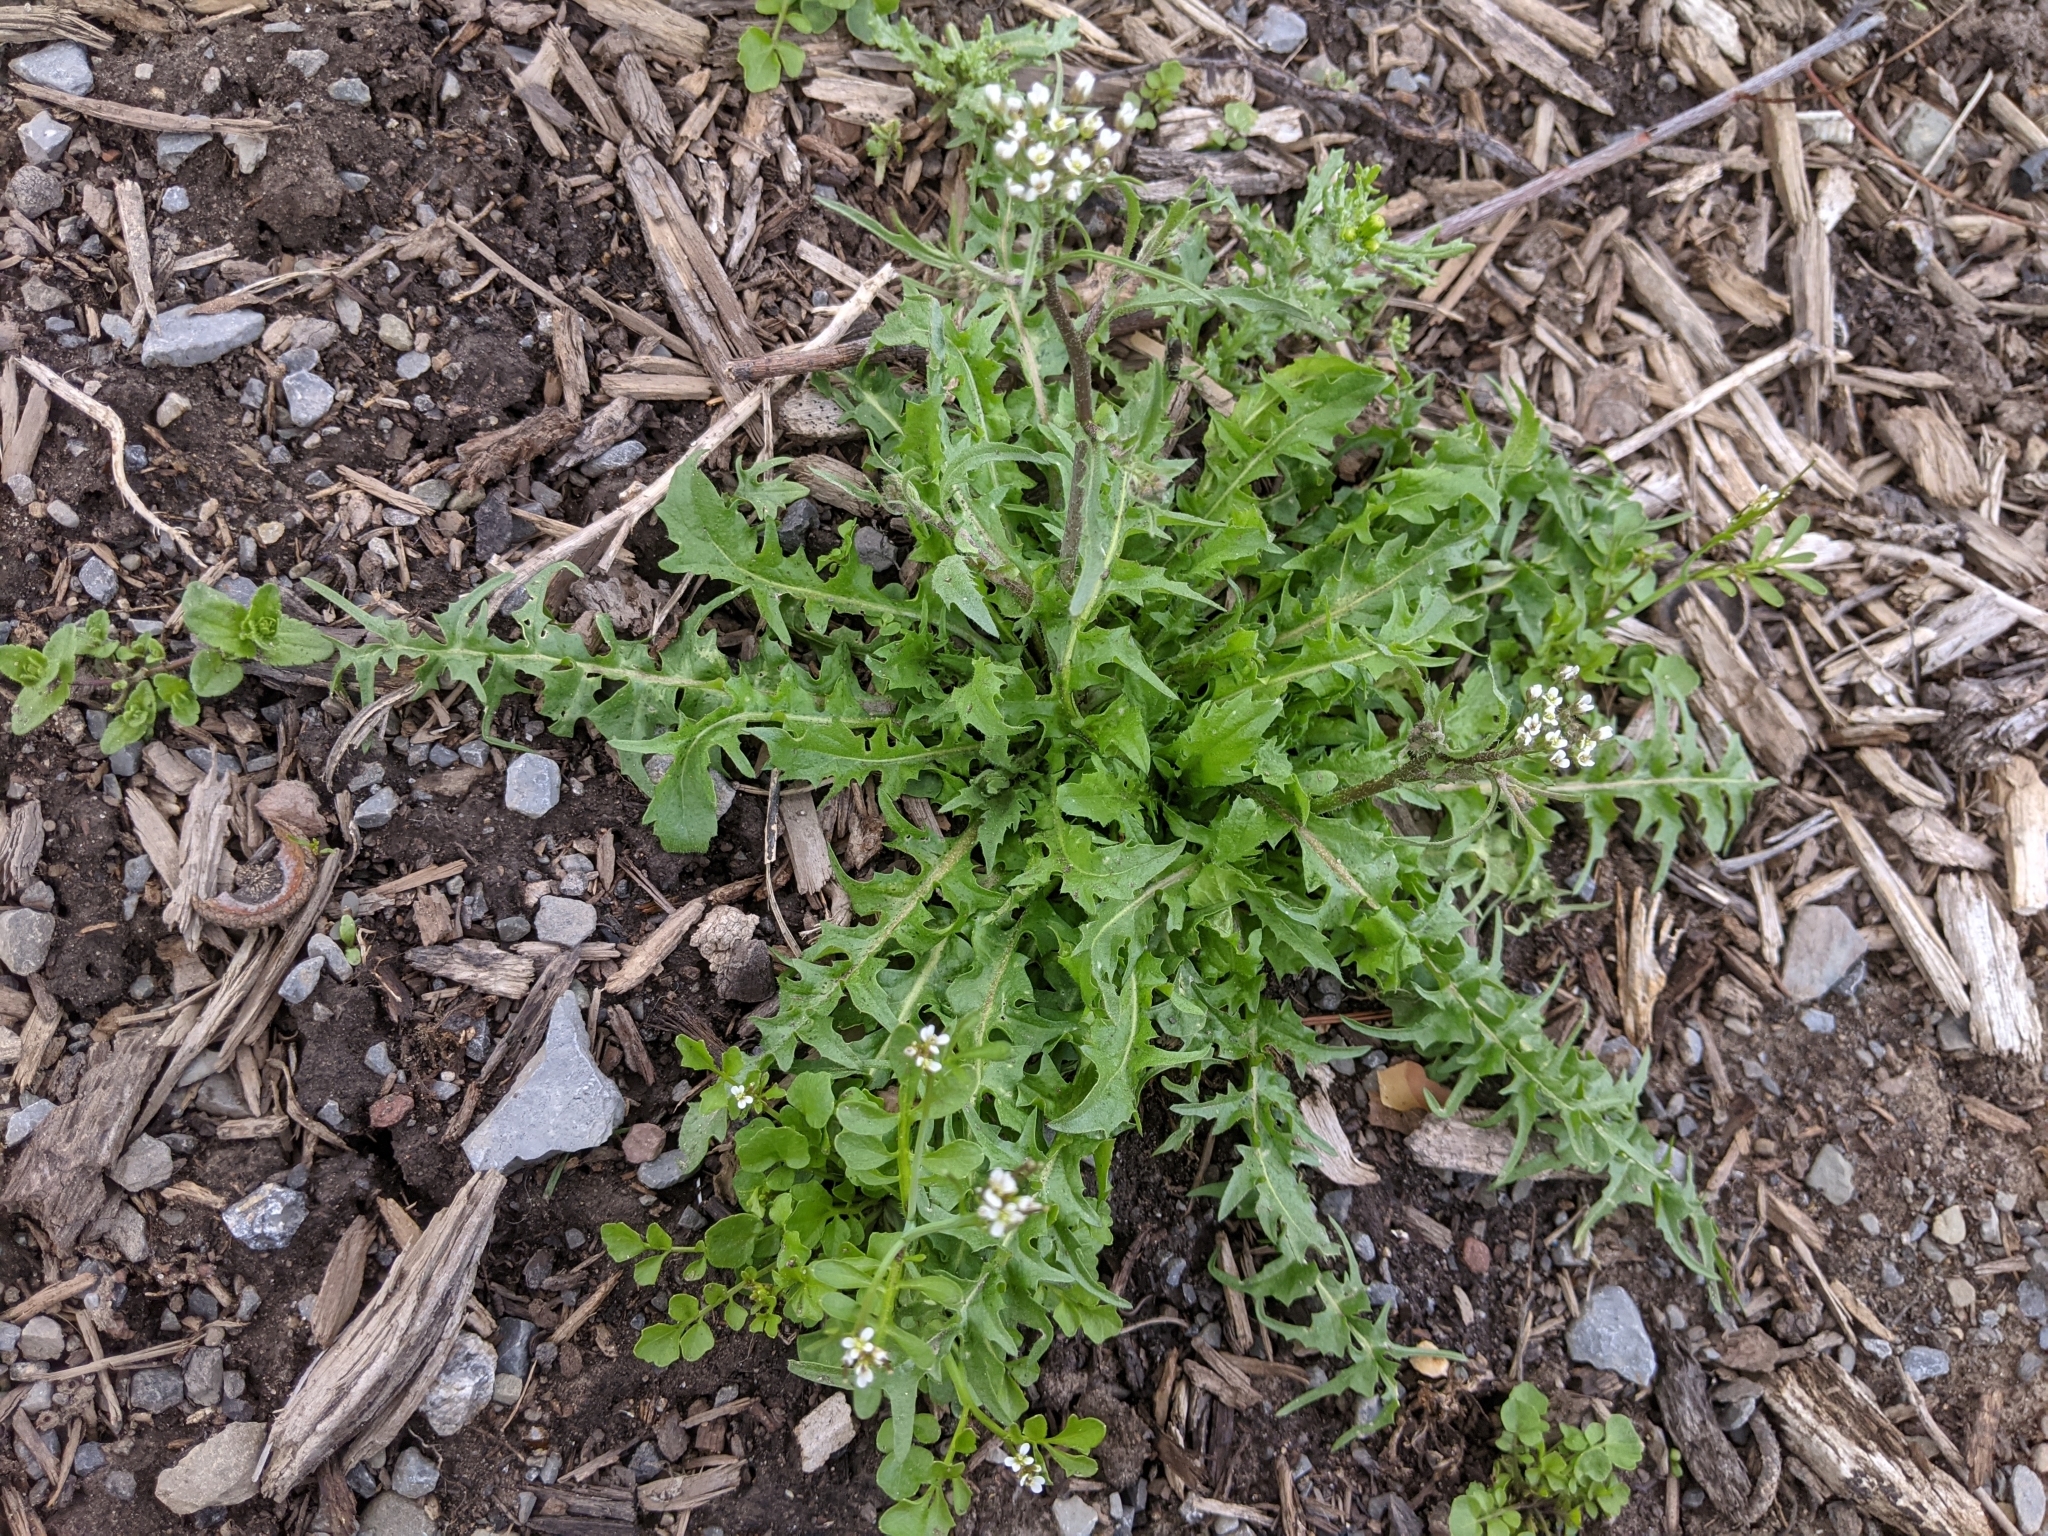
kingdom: Plantae
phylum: Tracheophyta
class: Magnoliopsida
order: Brassicales
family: Brassicaceae
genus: Capsella
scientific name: Capsella bursa-pastoris
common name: Shepherd's purse
